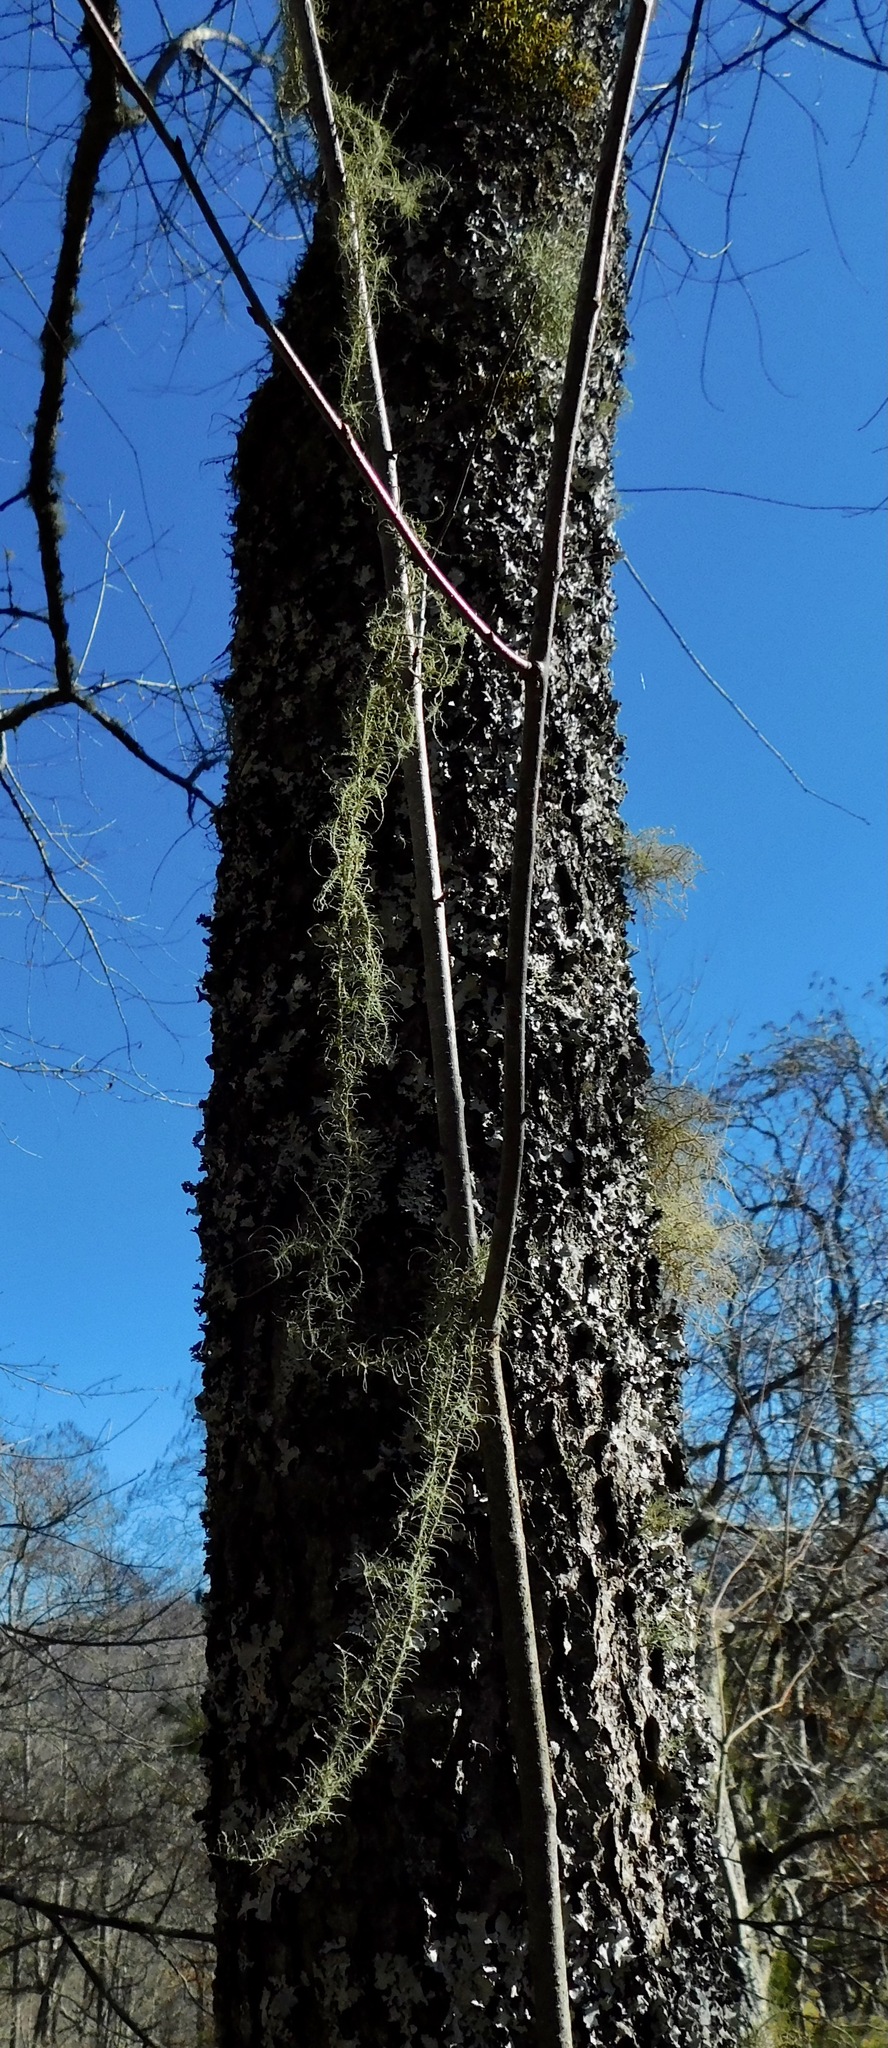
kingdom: Fungi
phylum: Ascomycota
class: Lecanoromycetes
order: Lecanorales
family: Parmeliaceae
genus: Usnea
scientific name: Usnea angulata
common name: Old-man’s beard lichen
